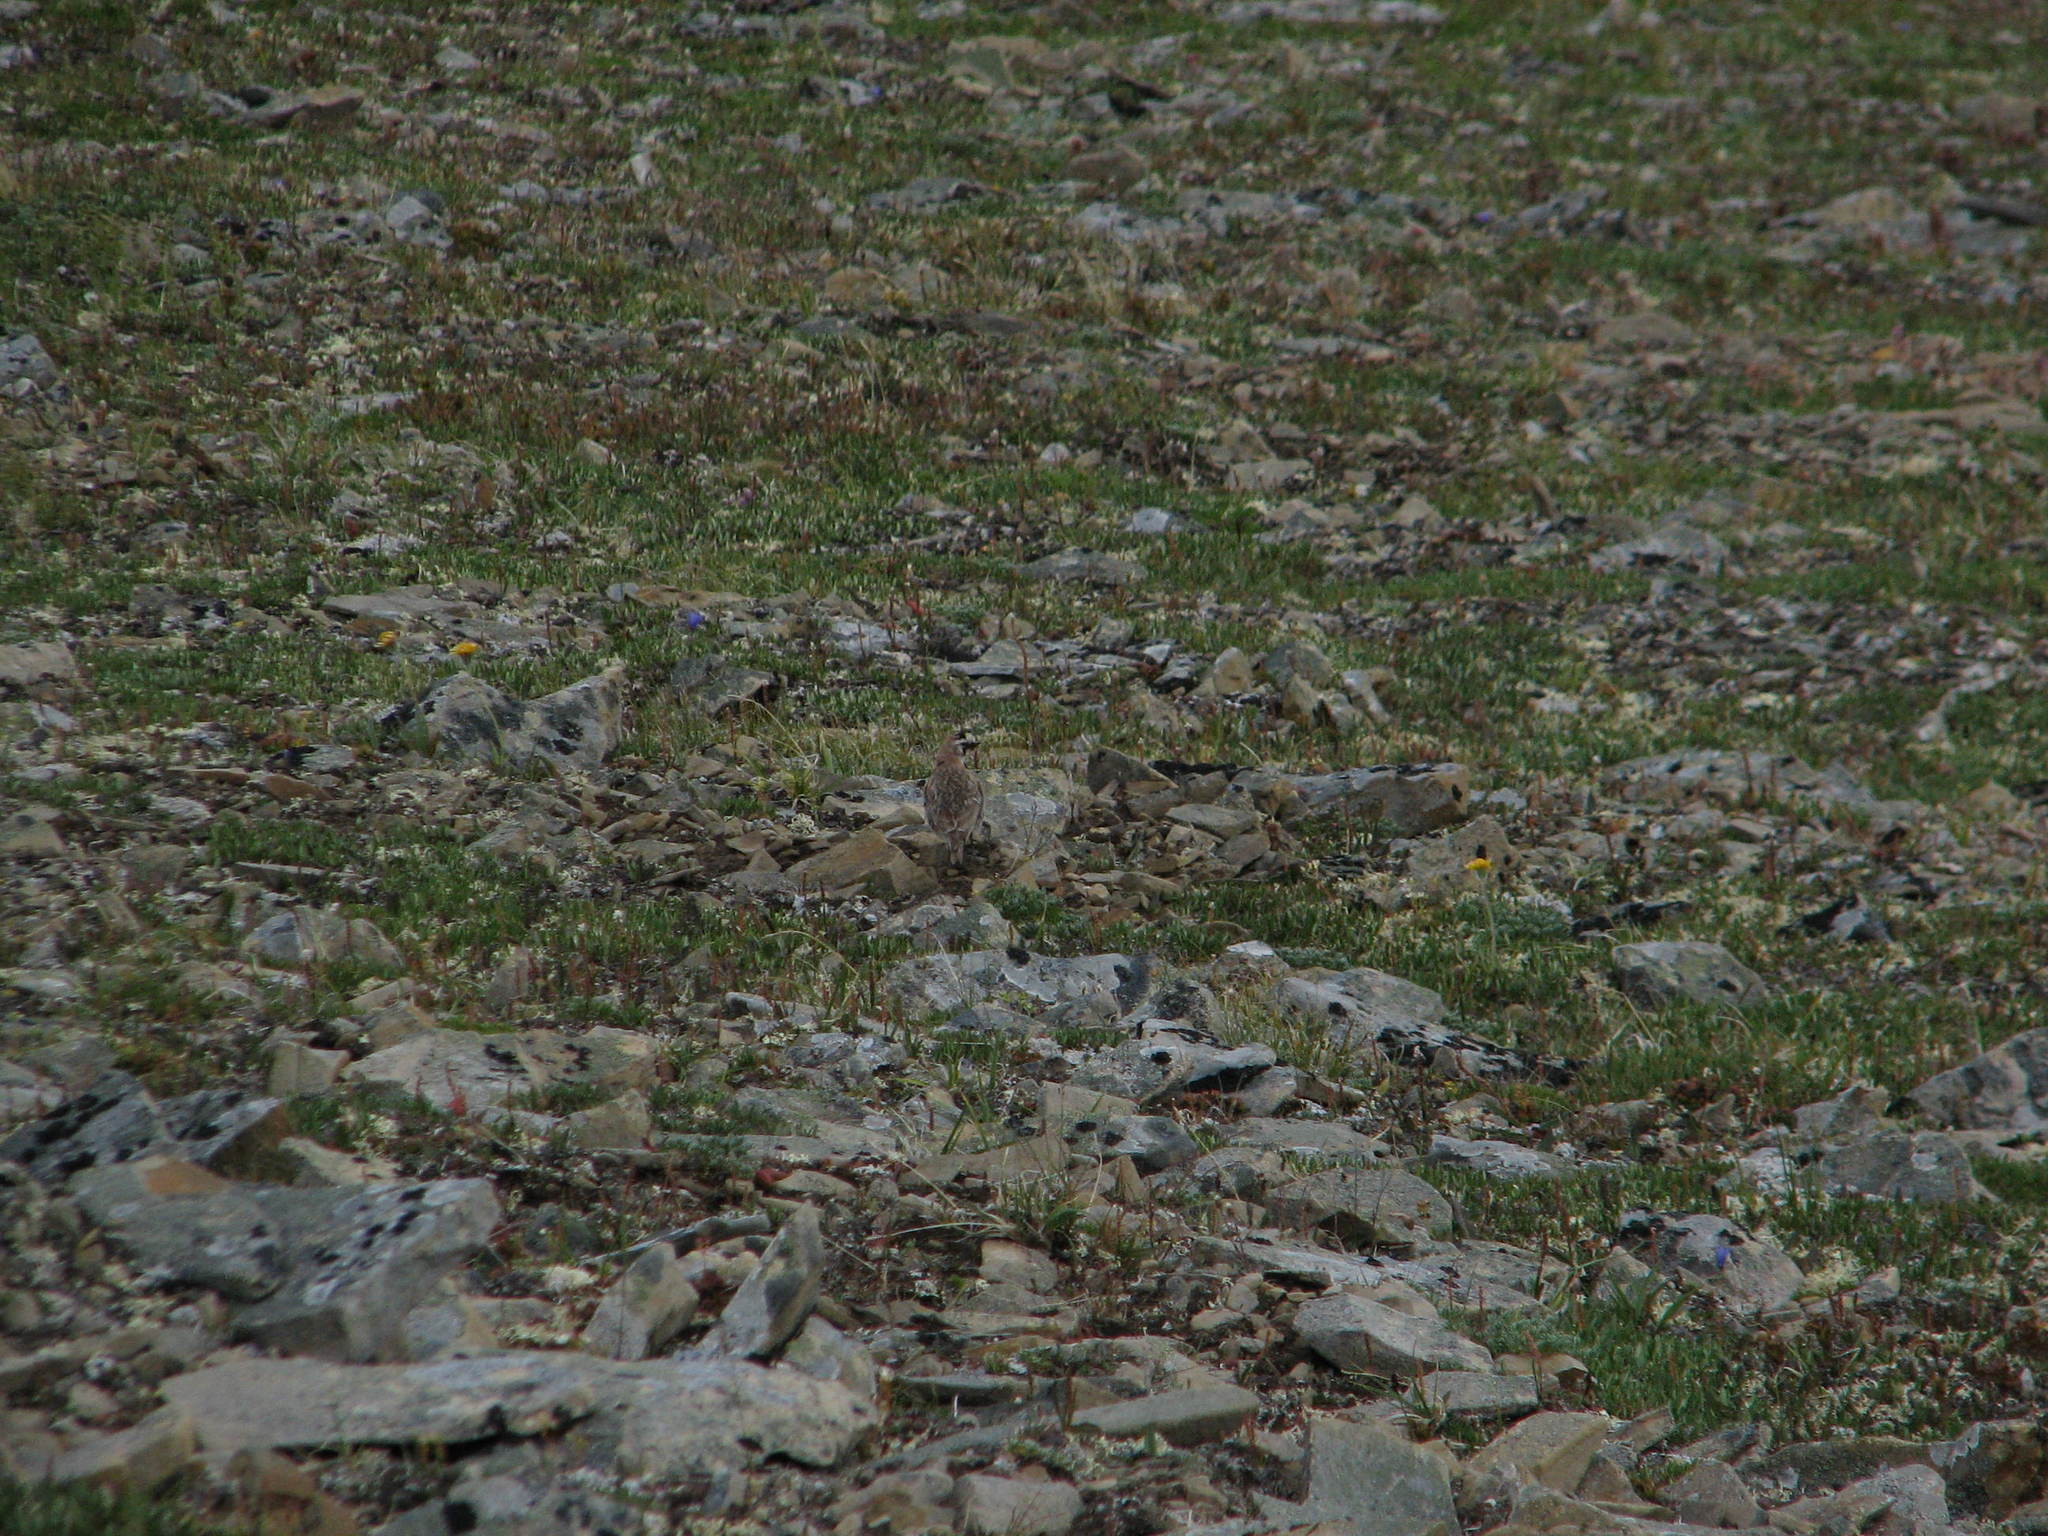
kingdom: Animalia
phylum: Chordata
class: Aves
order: Passeriformes
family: Alaudidae
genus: Eremophila
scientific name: Eremophila alpestris
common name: Horned lark
